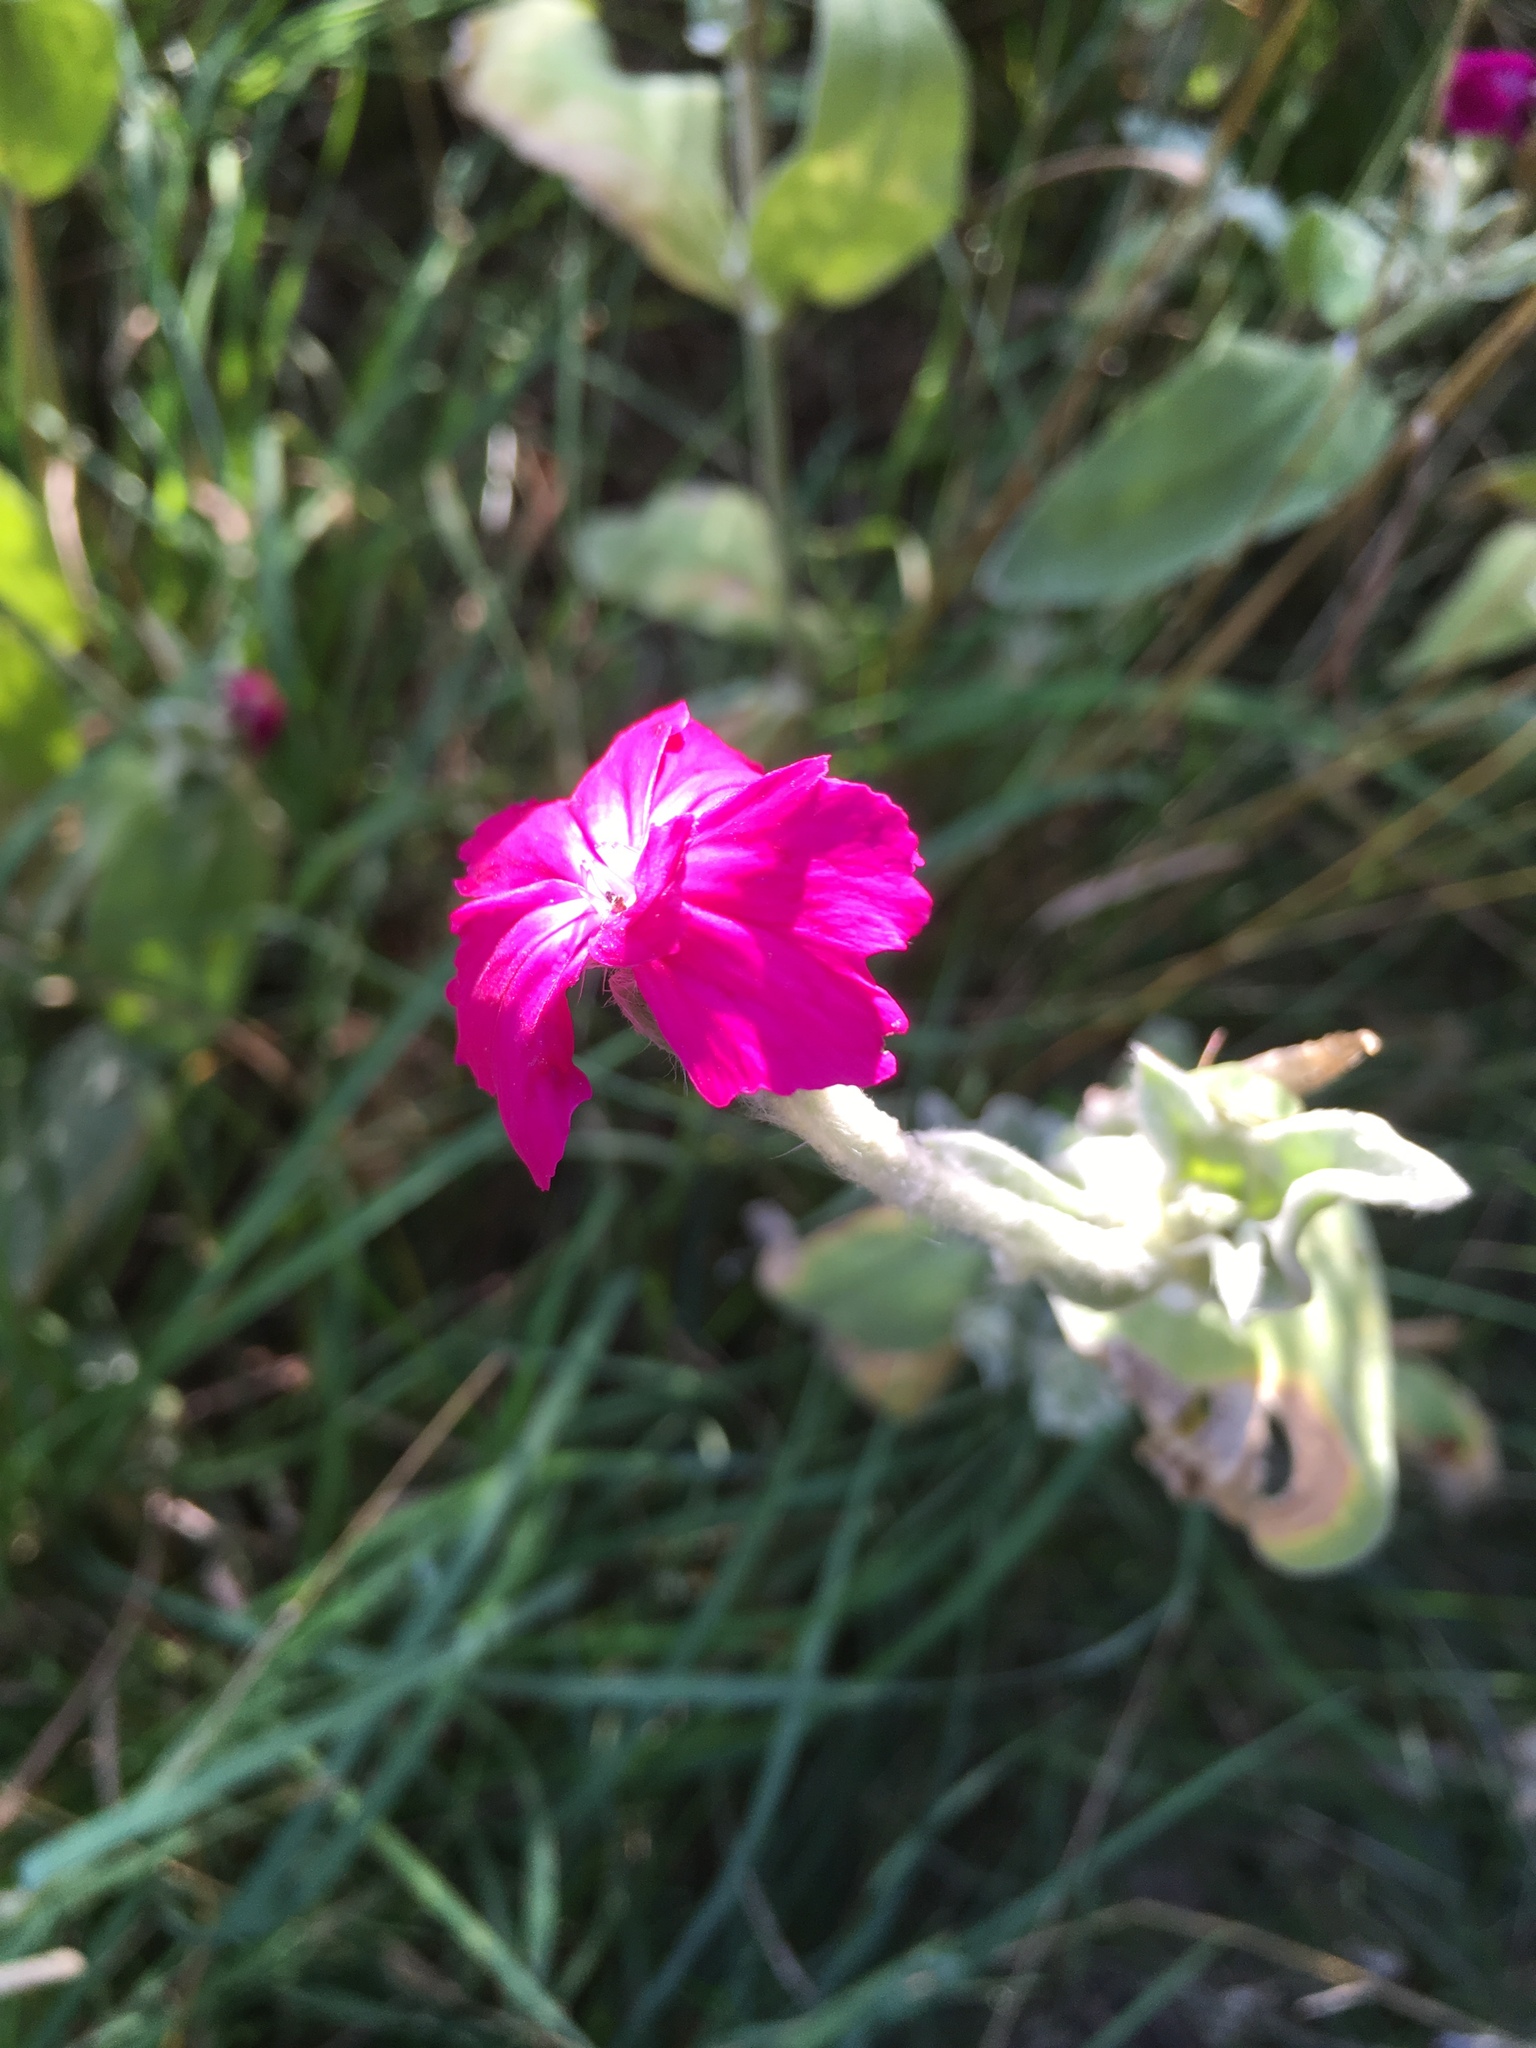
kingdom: Plantae
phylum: Tracheophyta
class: Magnoliopsida
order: Caryophyllales
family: Caryophyllaceae
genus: Silene
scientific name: Silene coronaria
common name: Rose campion
